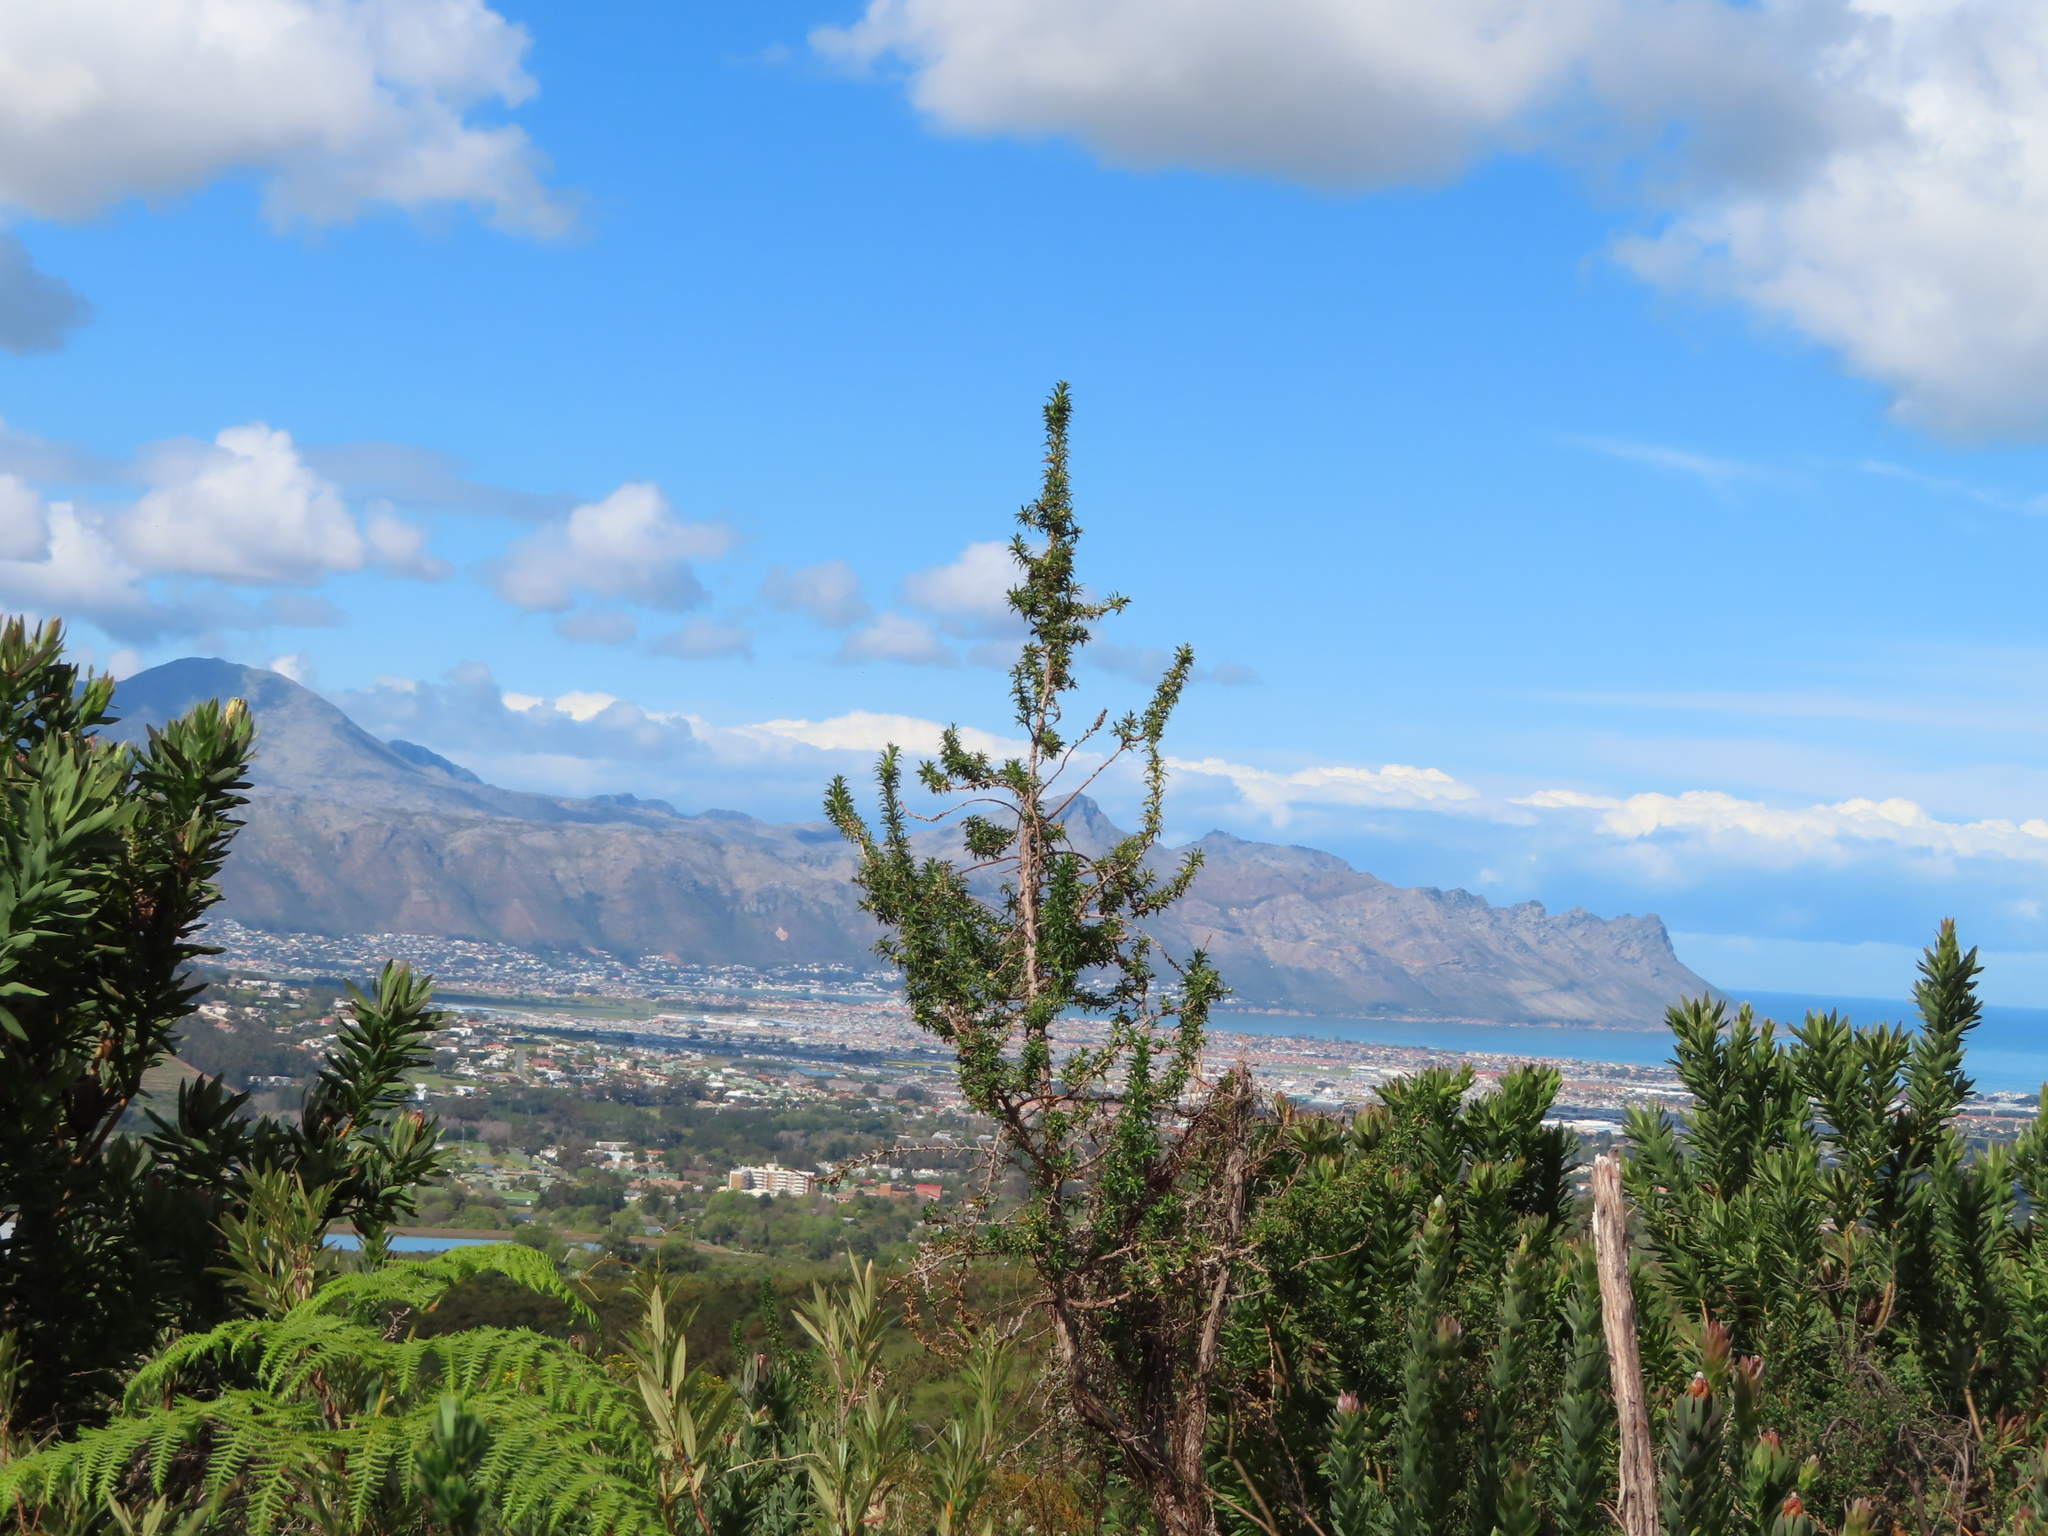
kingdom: Plantae
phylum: Tracheophyta
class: Magnoliopsida
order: Rosales
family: Rosaceae
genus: Cliffortia
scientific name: Cliffortia phillipsii
